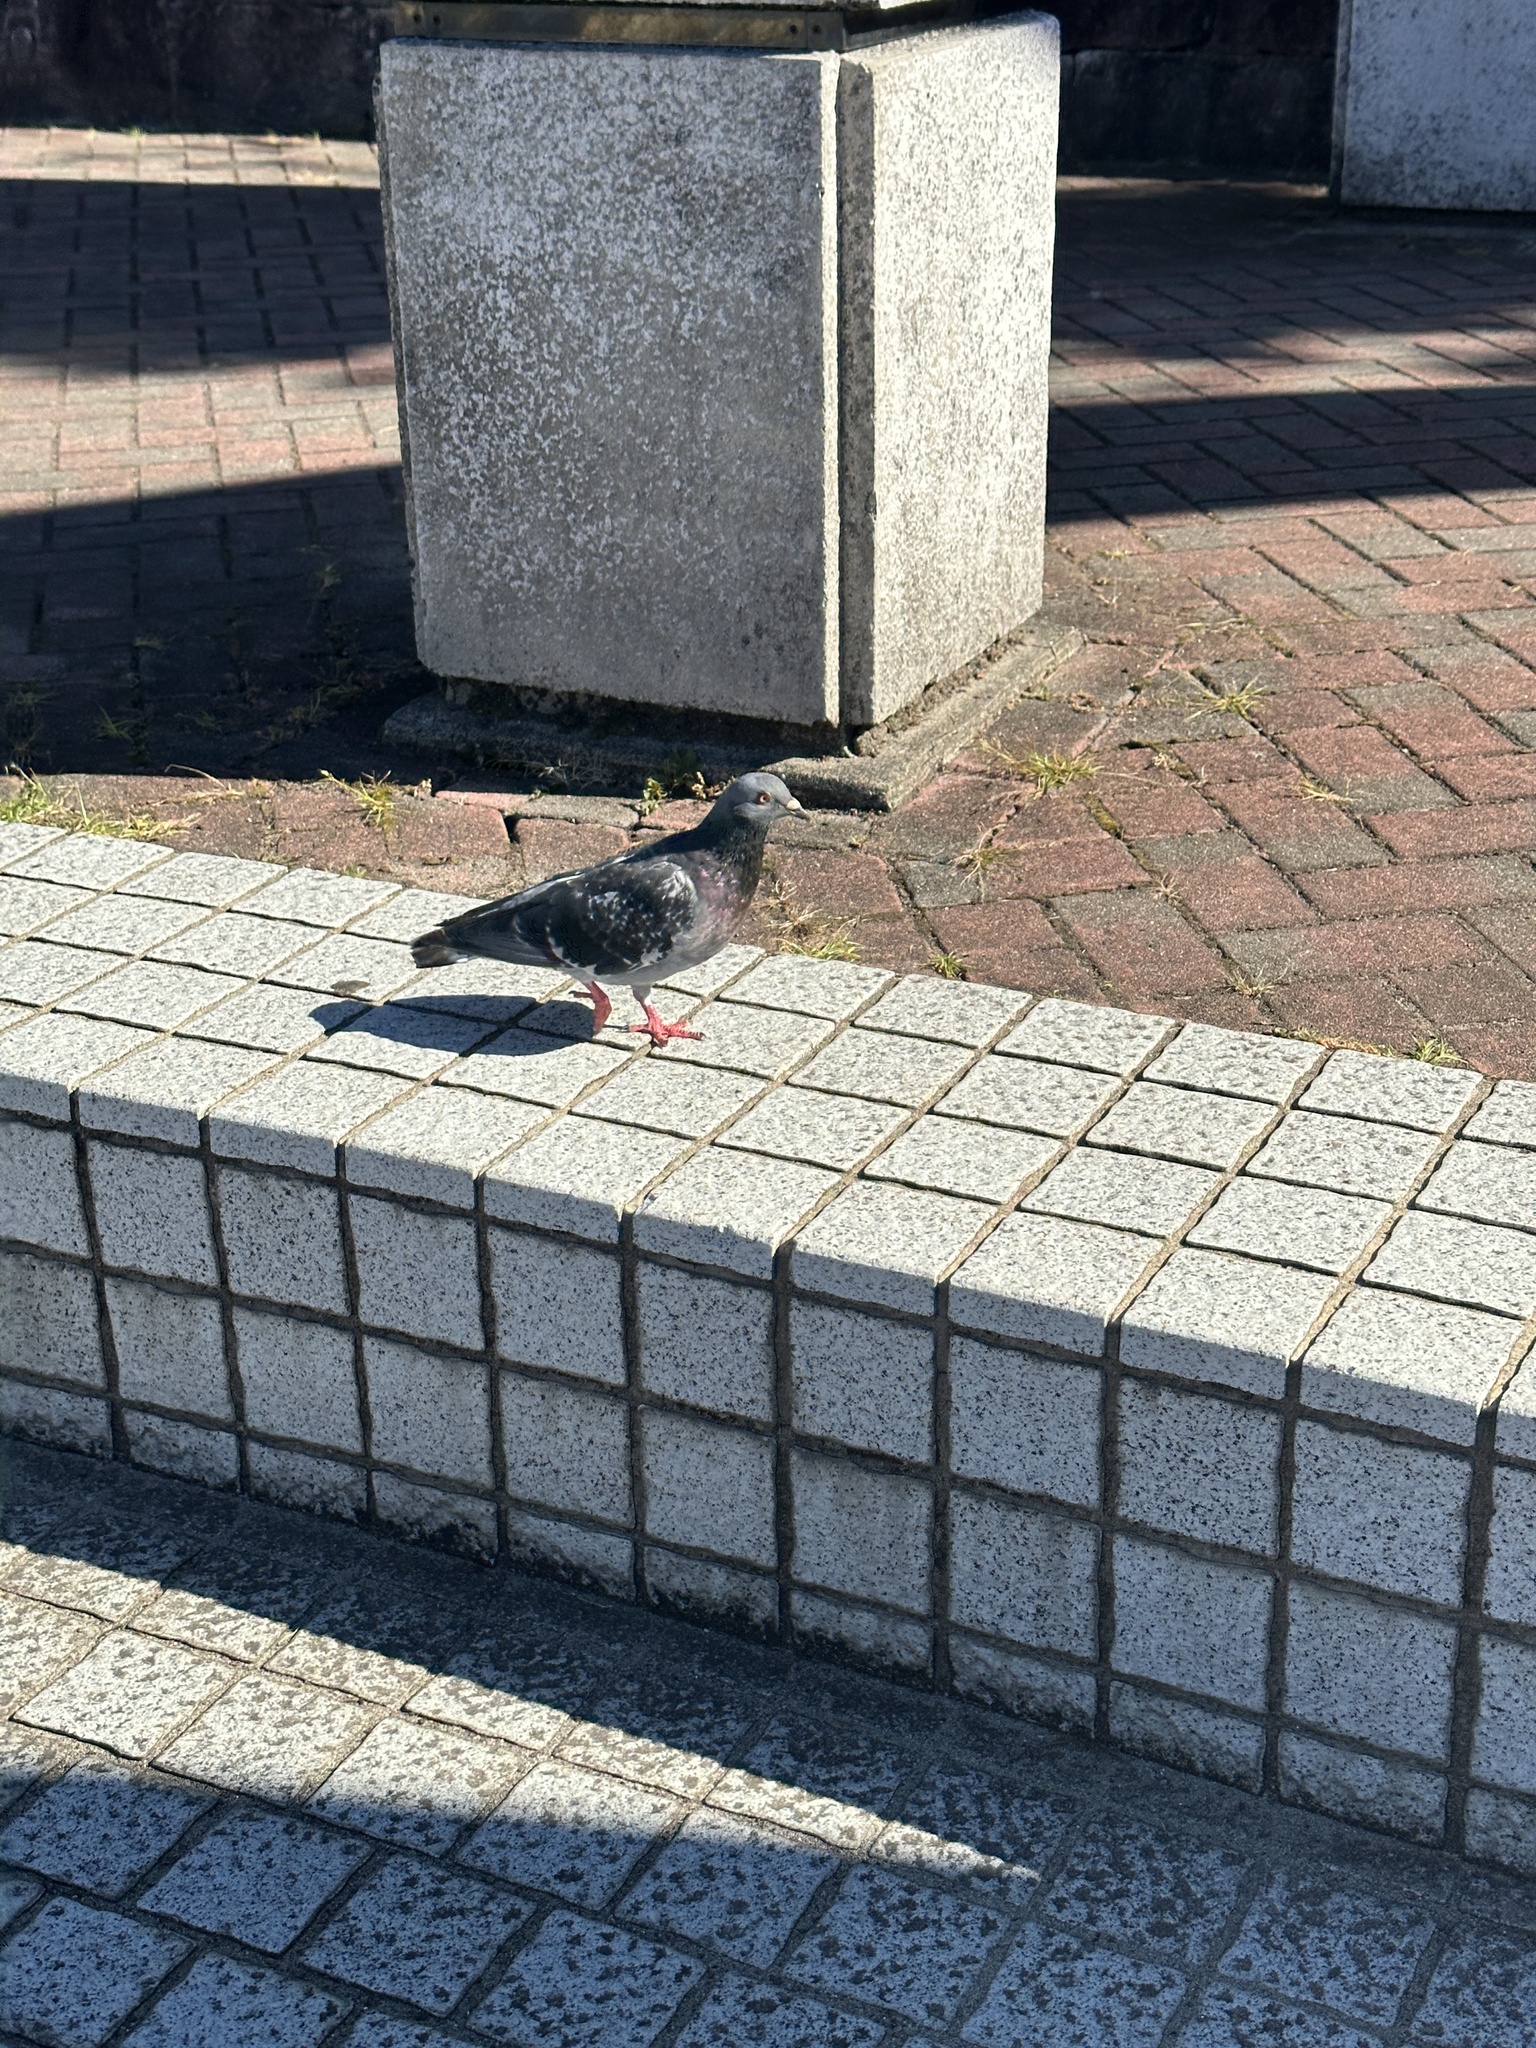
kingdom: Animalia
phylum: Chordata
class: Aves
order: Columbiformes
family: Columbidae
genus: Columba
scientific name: Columba livia
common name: Rock pigeon
